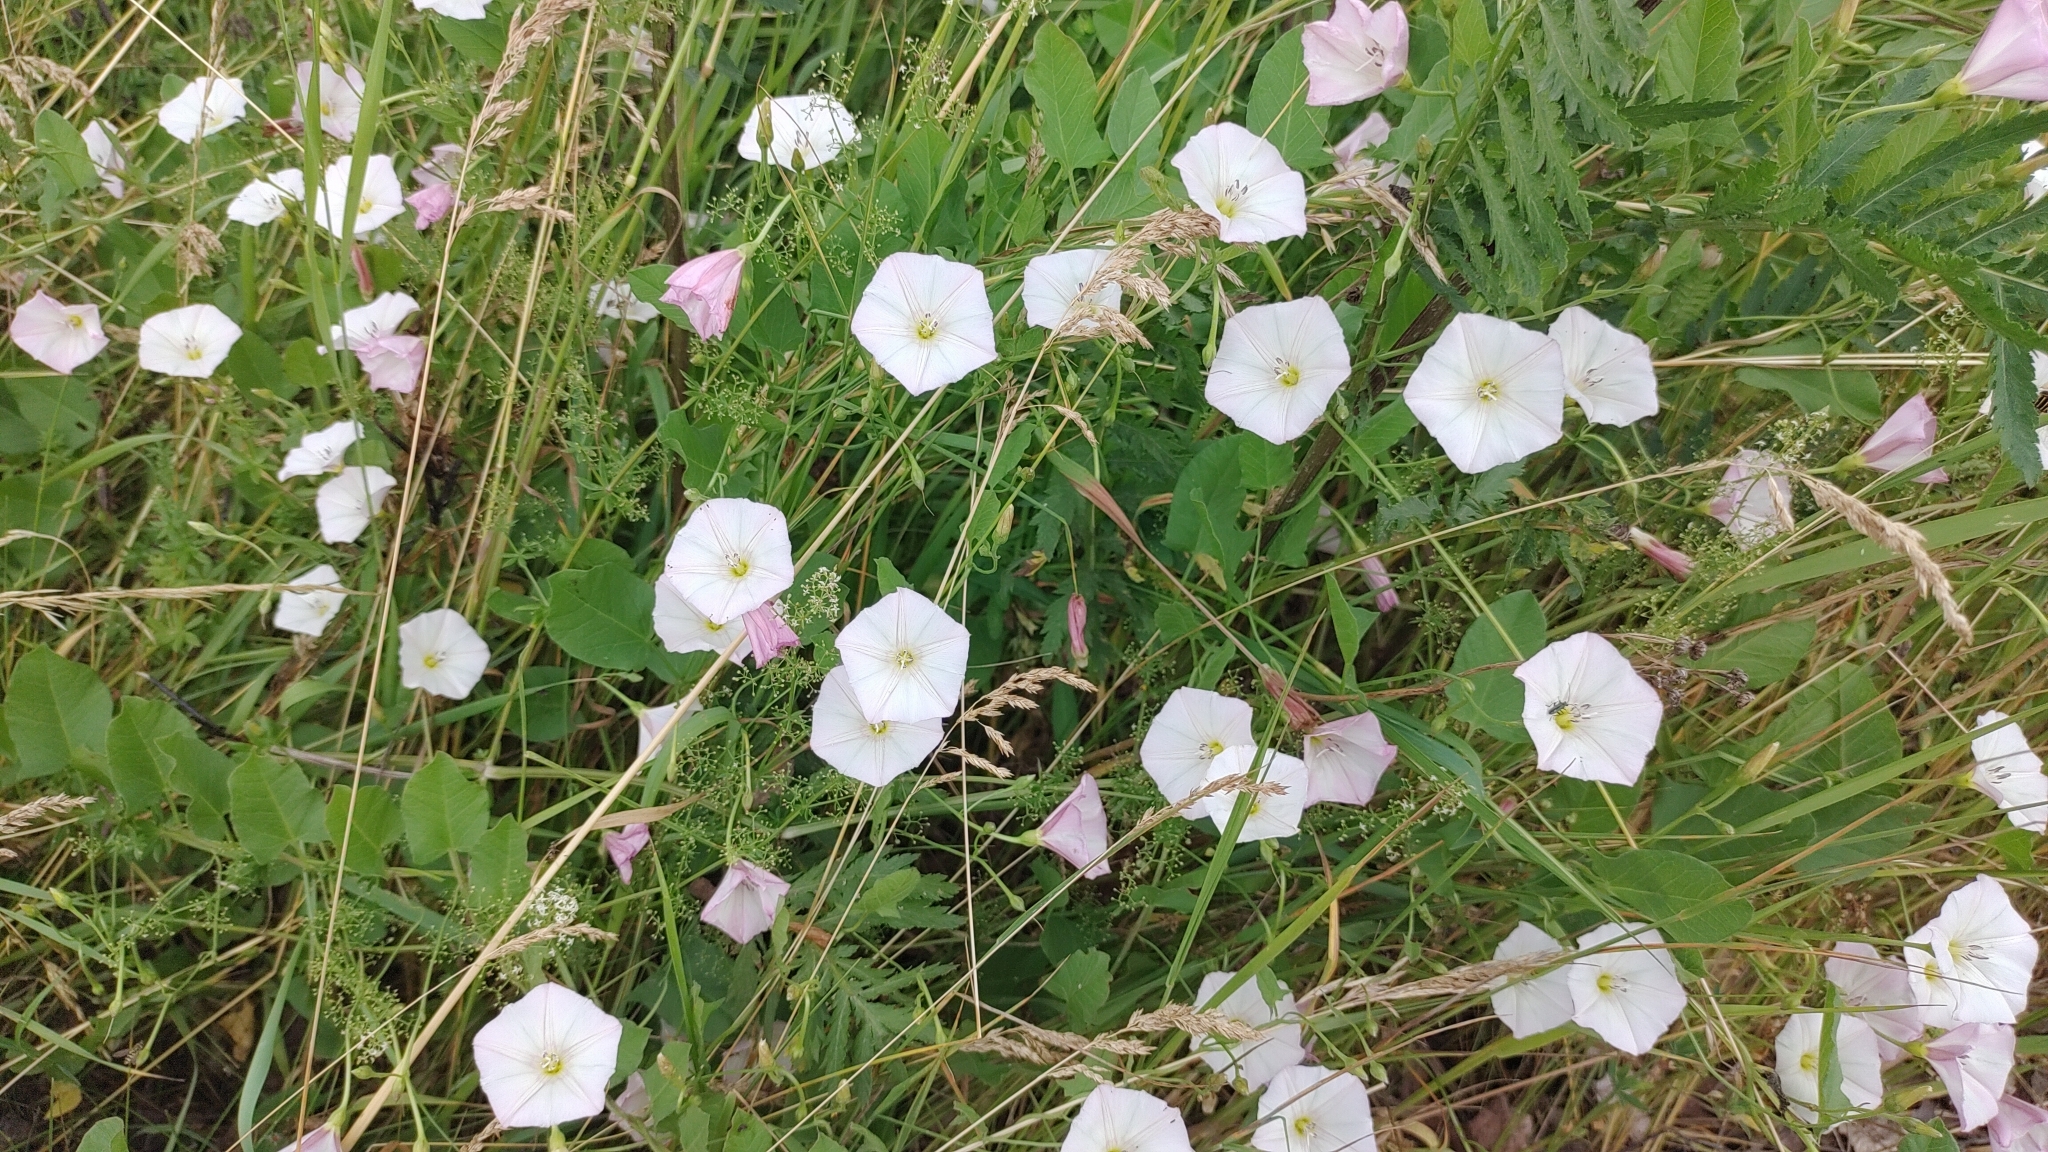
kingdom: Plantae
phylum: Tracheophyta
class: Magnoliopsida
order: Solanales
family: Convolvulaceae
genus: Convolvulus
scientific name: Convolvulus arvensis
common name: Field bindweed
